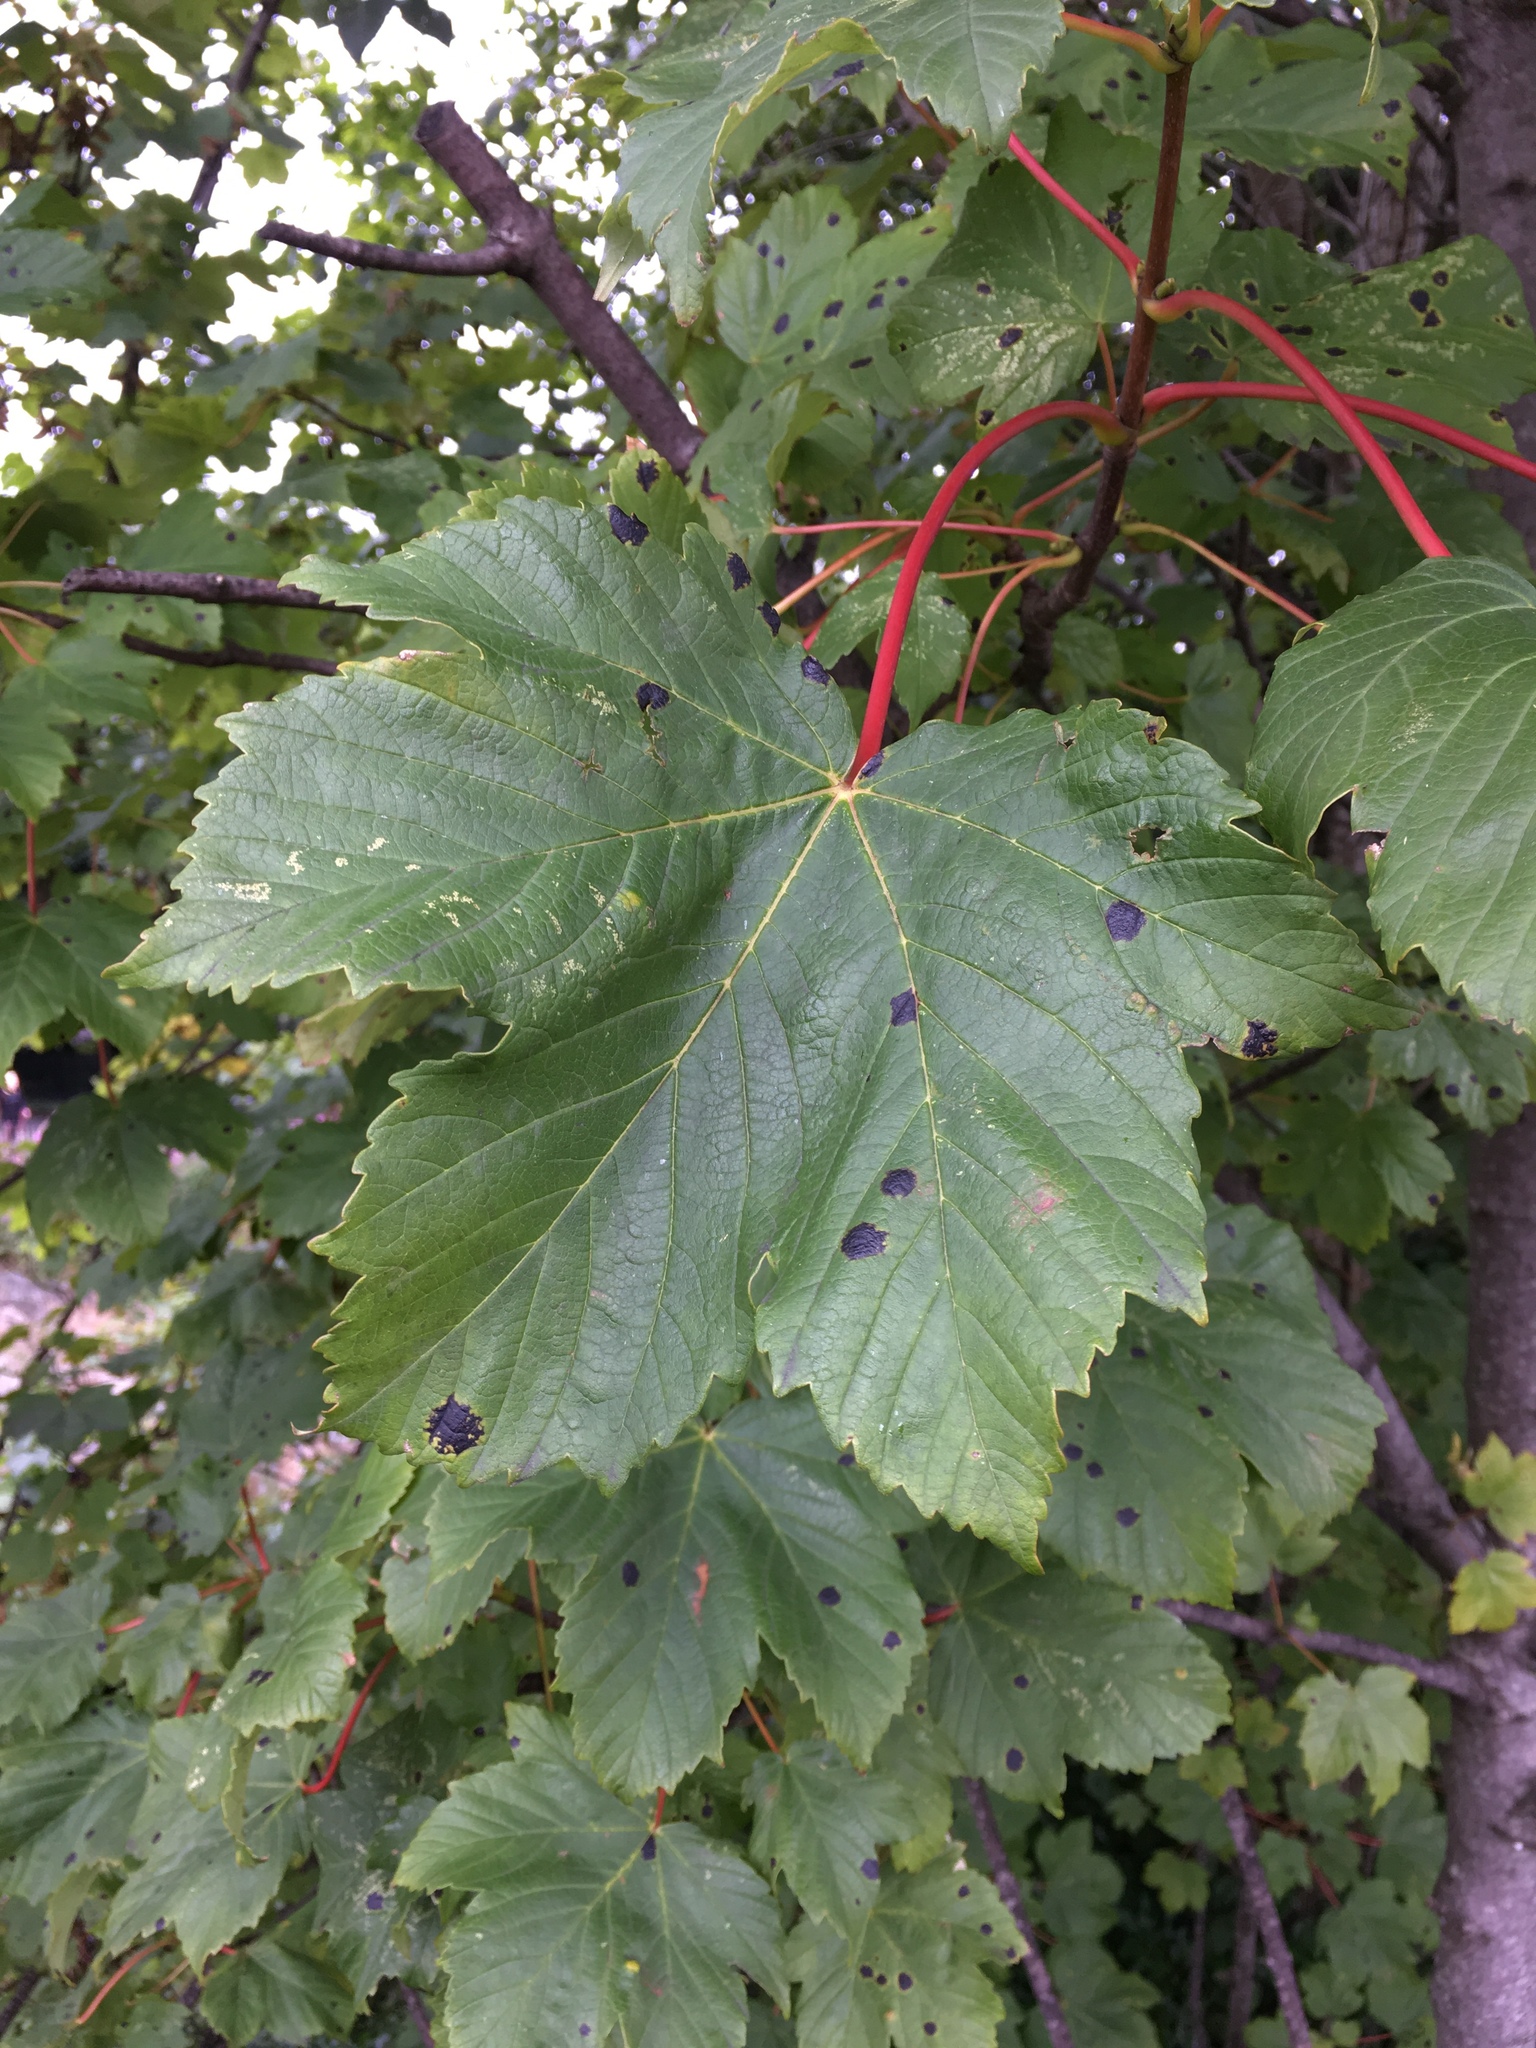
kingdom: Plantae
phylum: Tracheophyta
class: Magnoliopsida
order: Sapindales
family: Sapindaceae
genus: Acer
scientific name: Acer pseudoplatanus
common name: Sycamore
